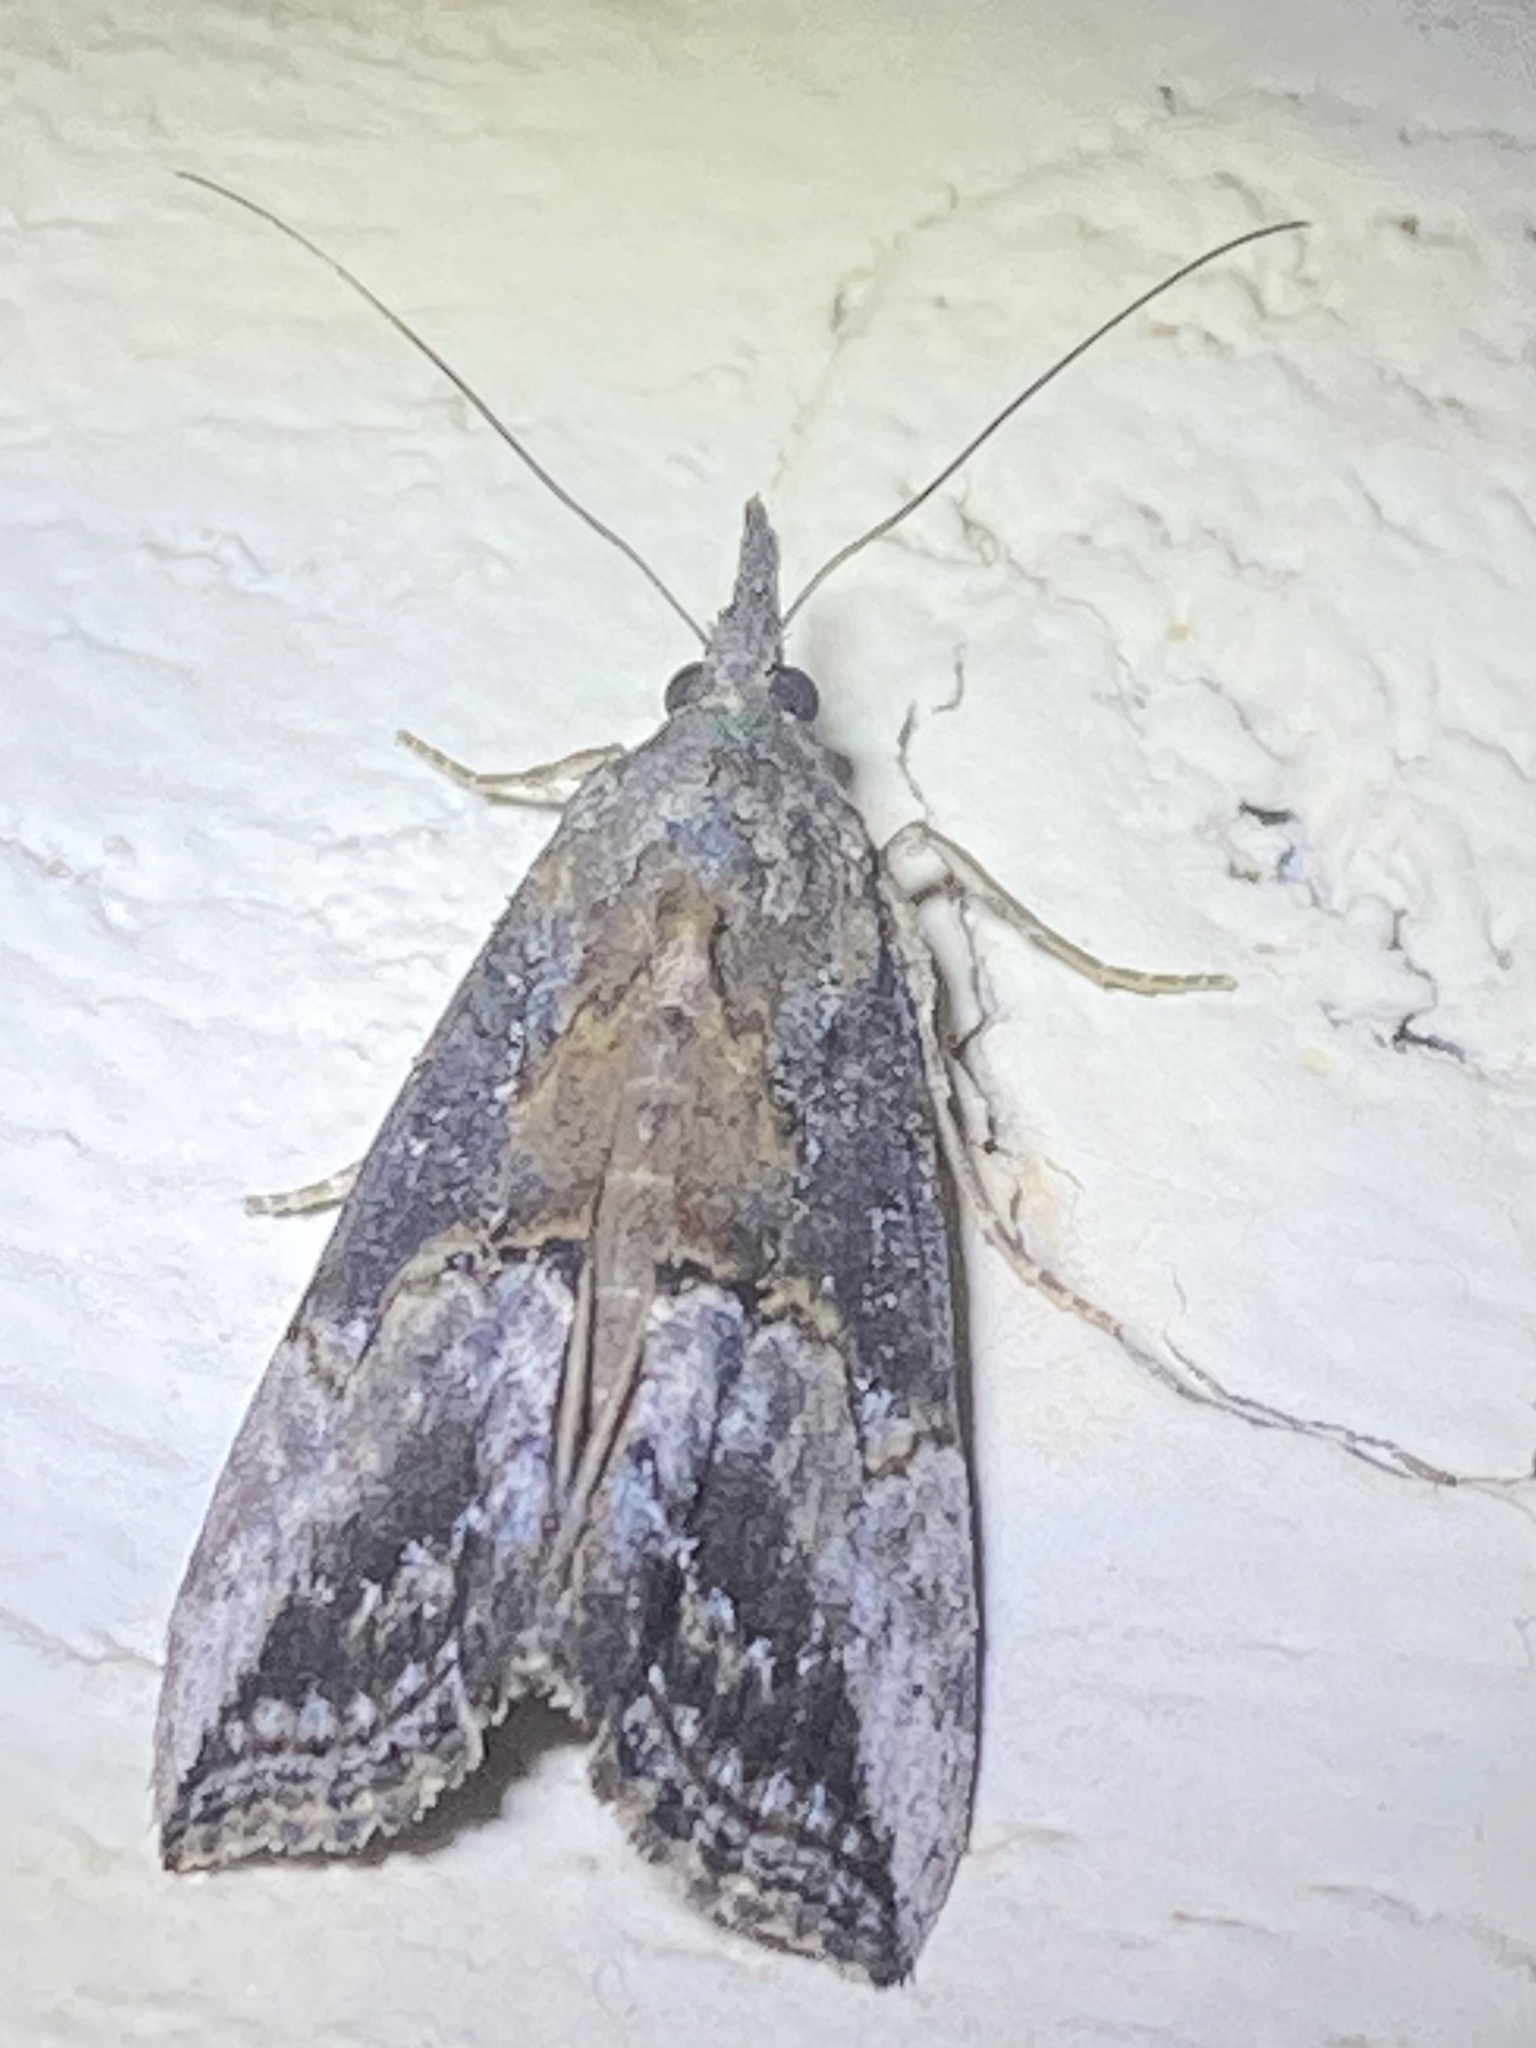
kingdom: Animalia
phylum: Arthropoda
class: Insecta
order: Lepidoptera
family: Erebidae
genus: Hypena
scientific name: Hypena scabra
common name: Green cloverworm
